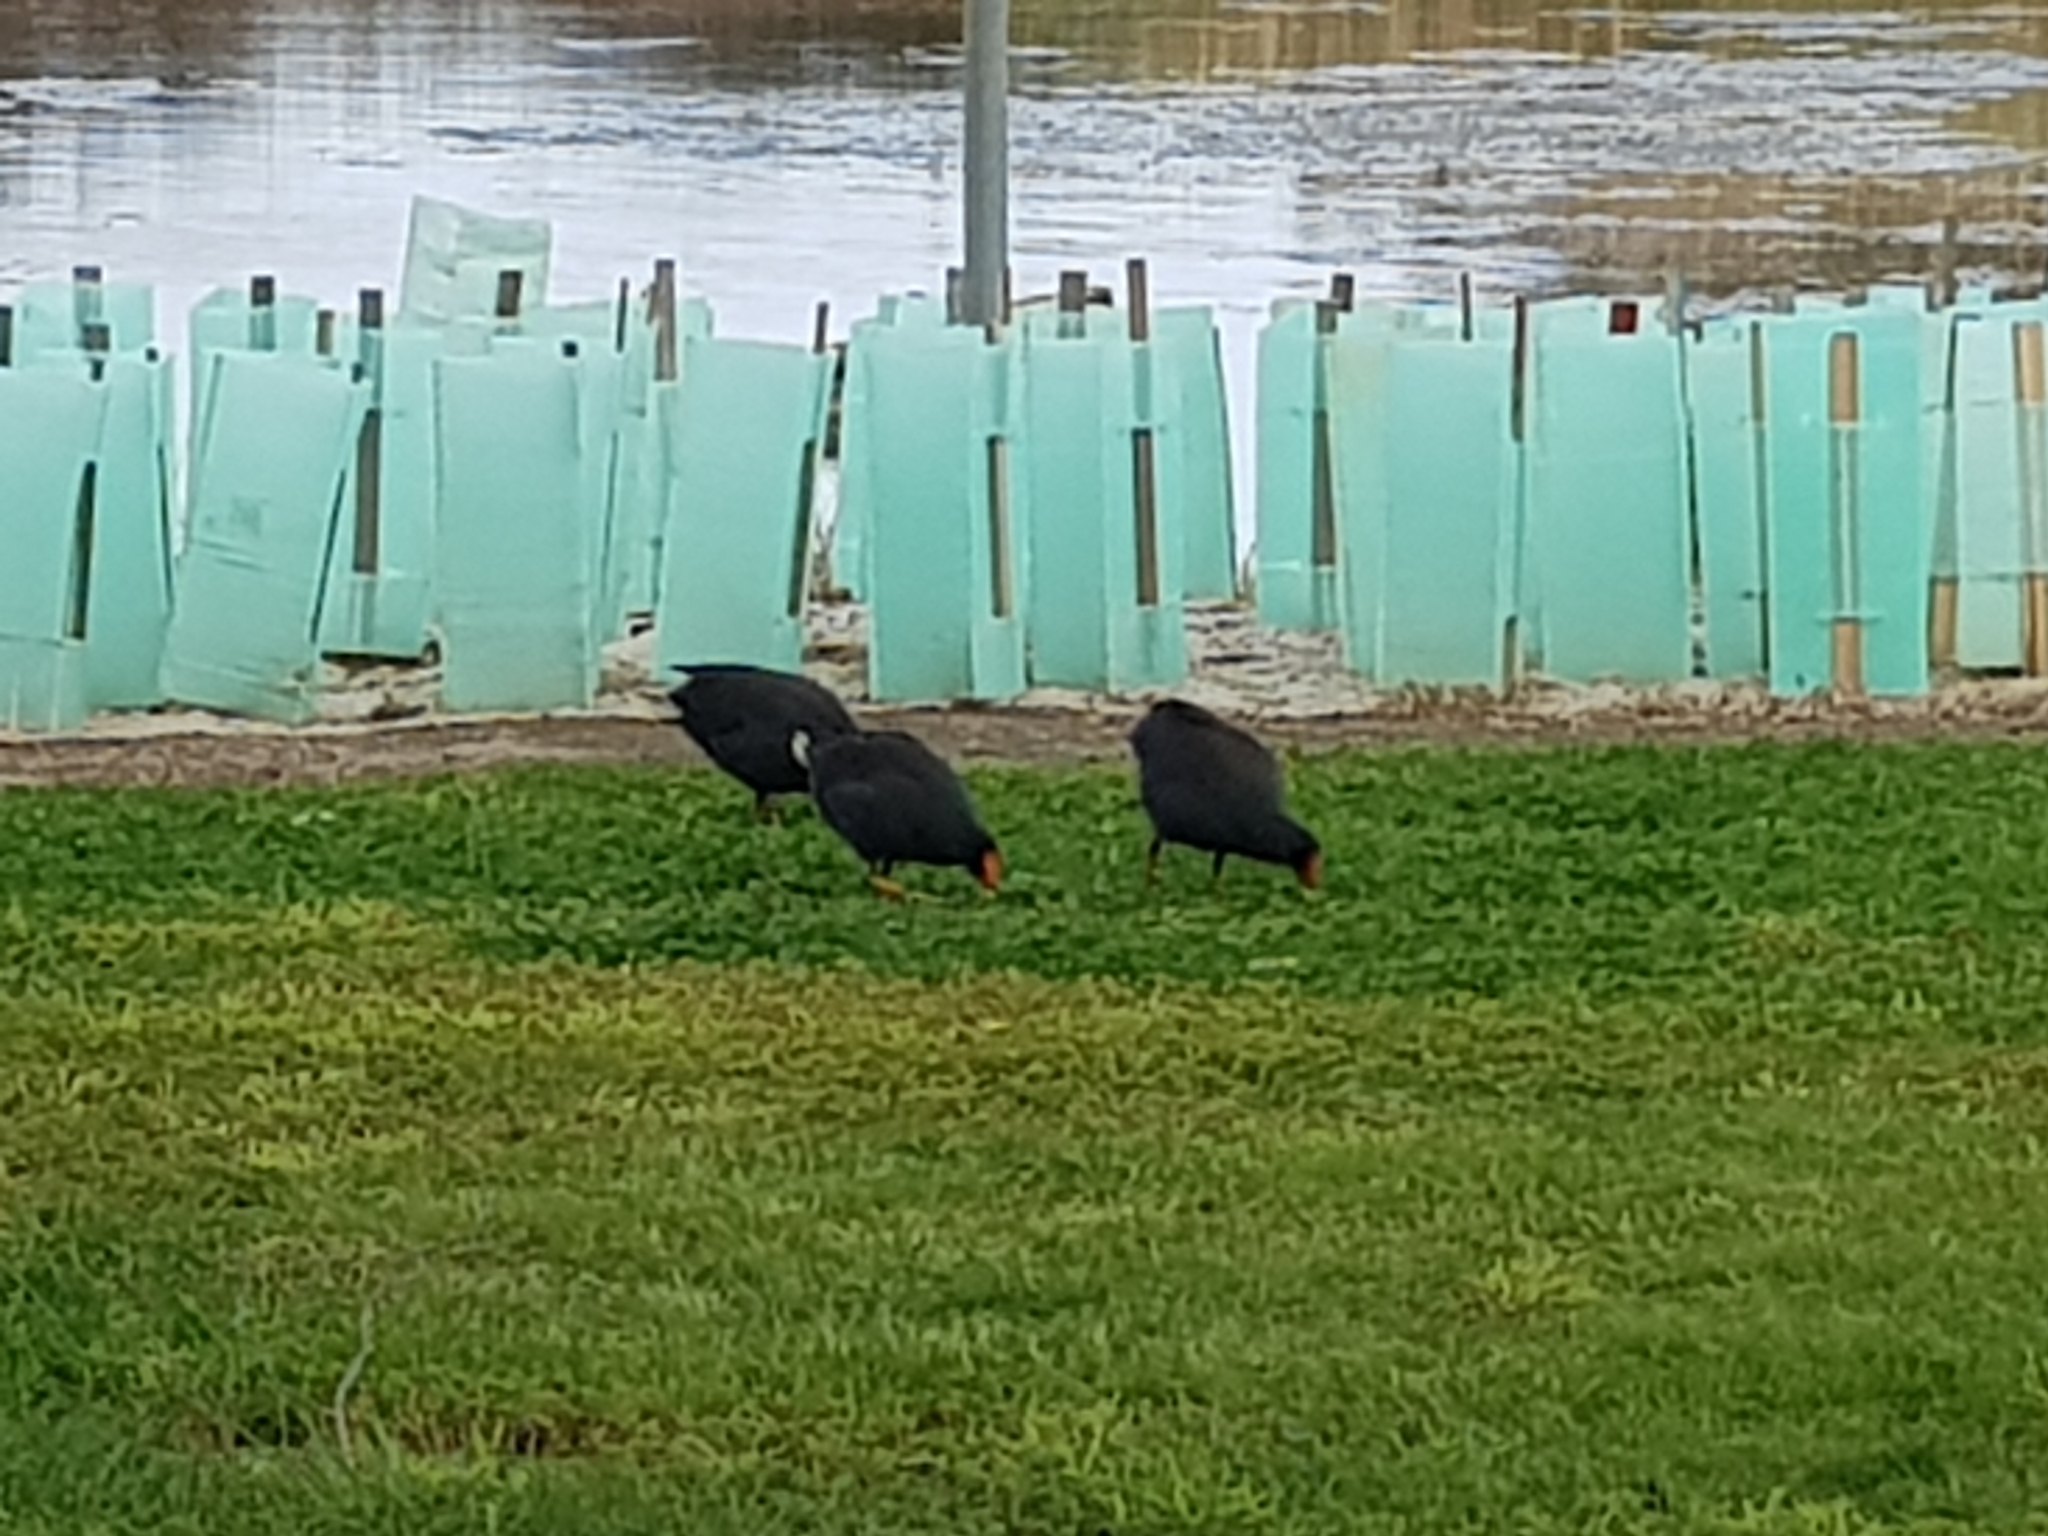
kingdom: Animalia
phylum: Chordata
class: Aves
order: Gruiformes
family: Rallidae
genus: Gallinula
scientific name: Gallinula tenebrosa
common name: Dusky moorhen
